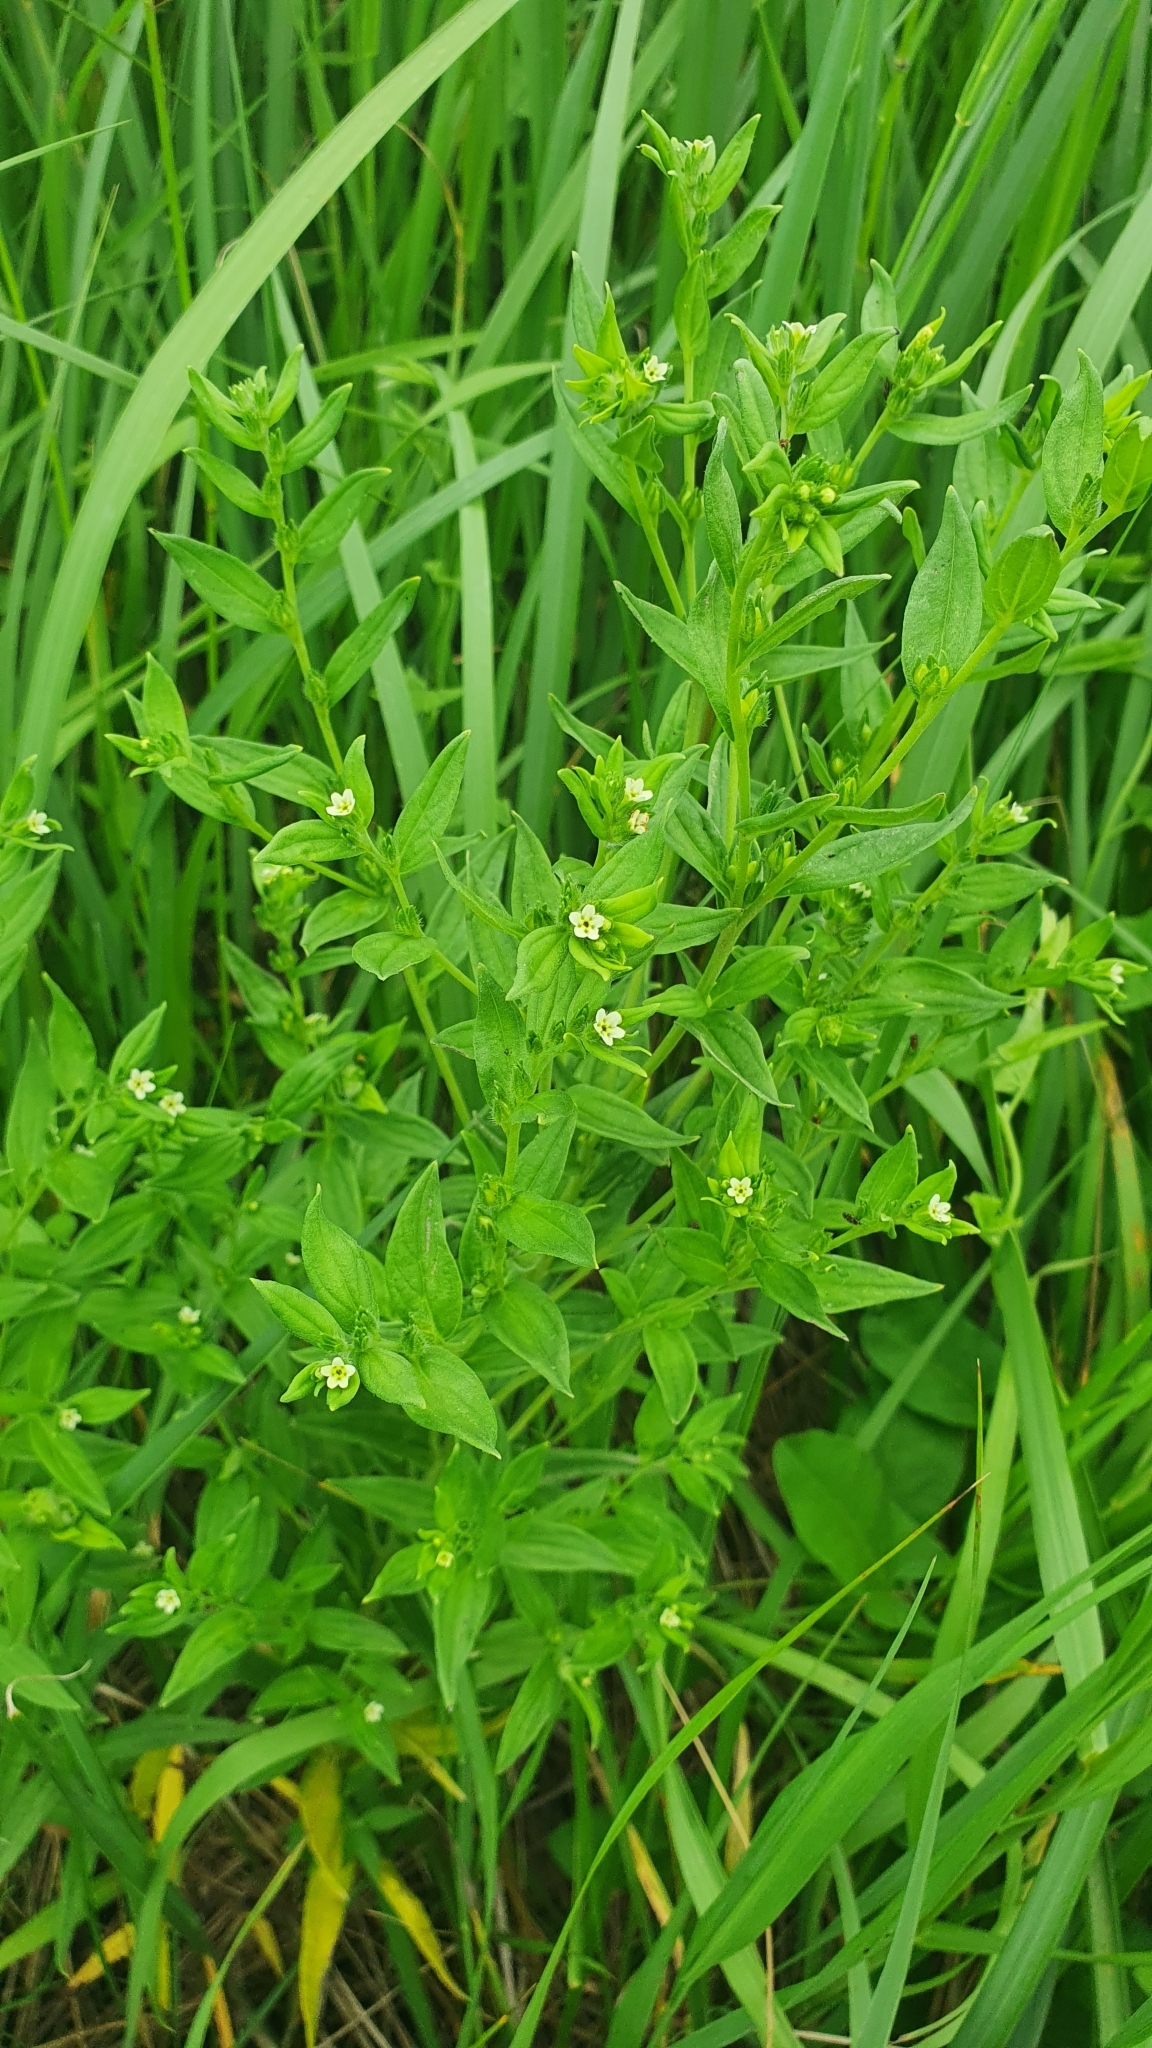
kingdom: Plantae
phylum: Tracheophyta
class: Magnoliopsida
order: Boraginales
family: Boraginaceae
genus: Lithospermum
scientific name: Lithospermum officinale
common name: Common gromwell
